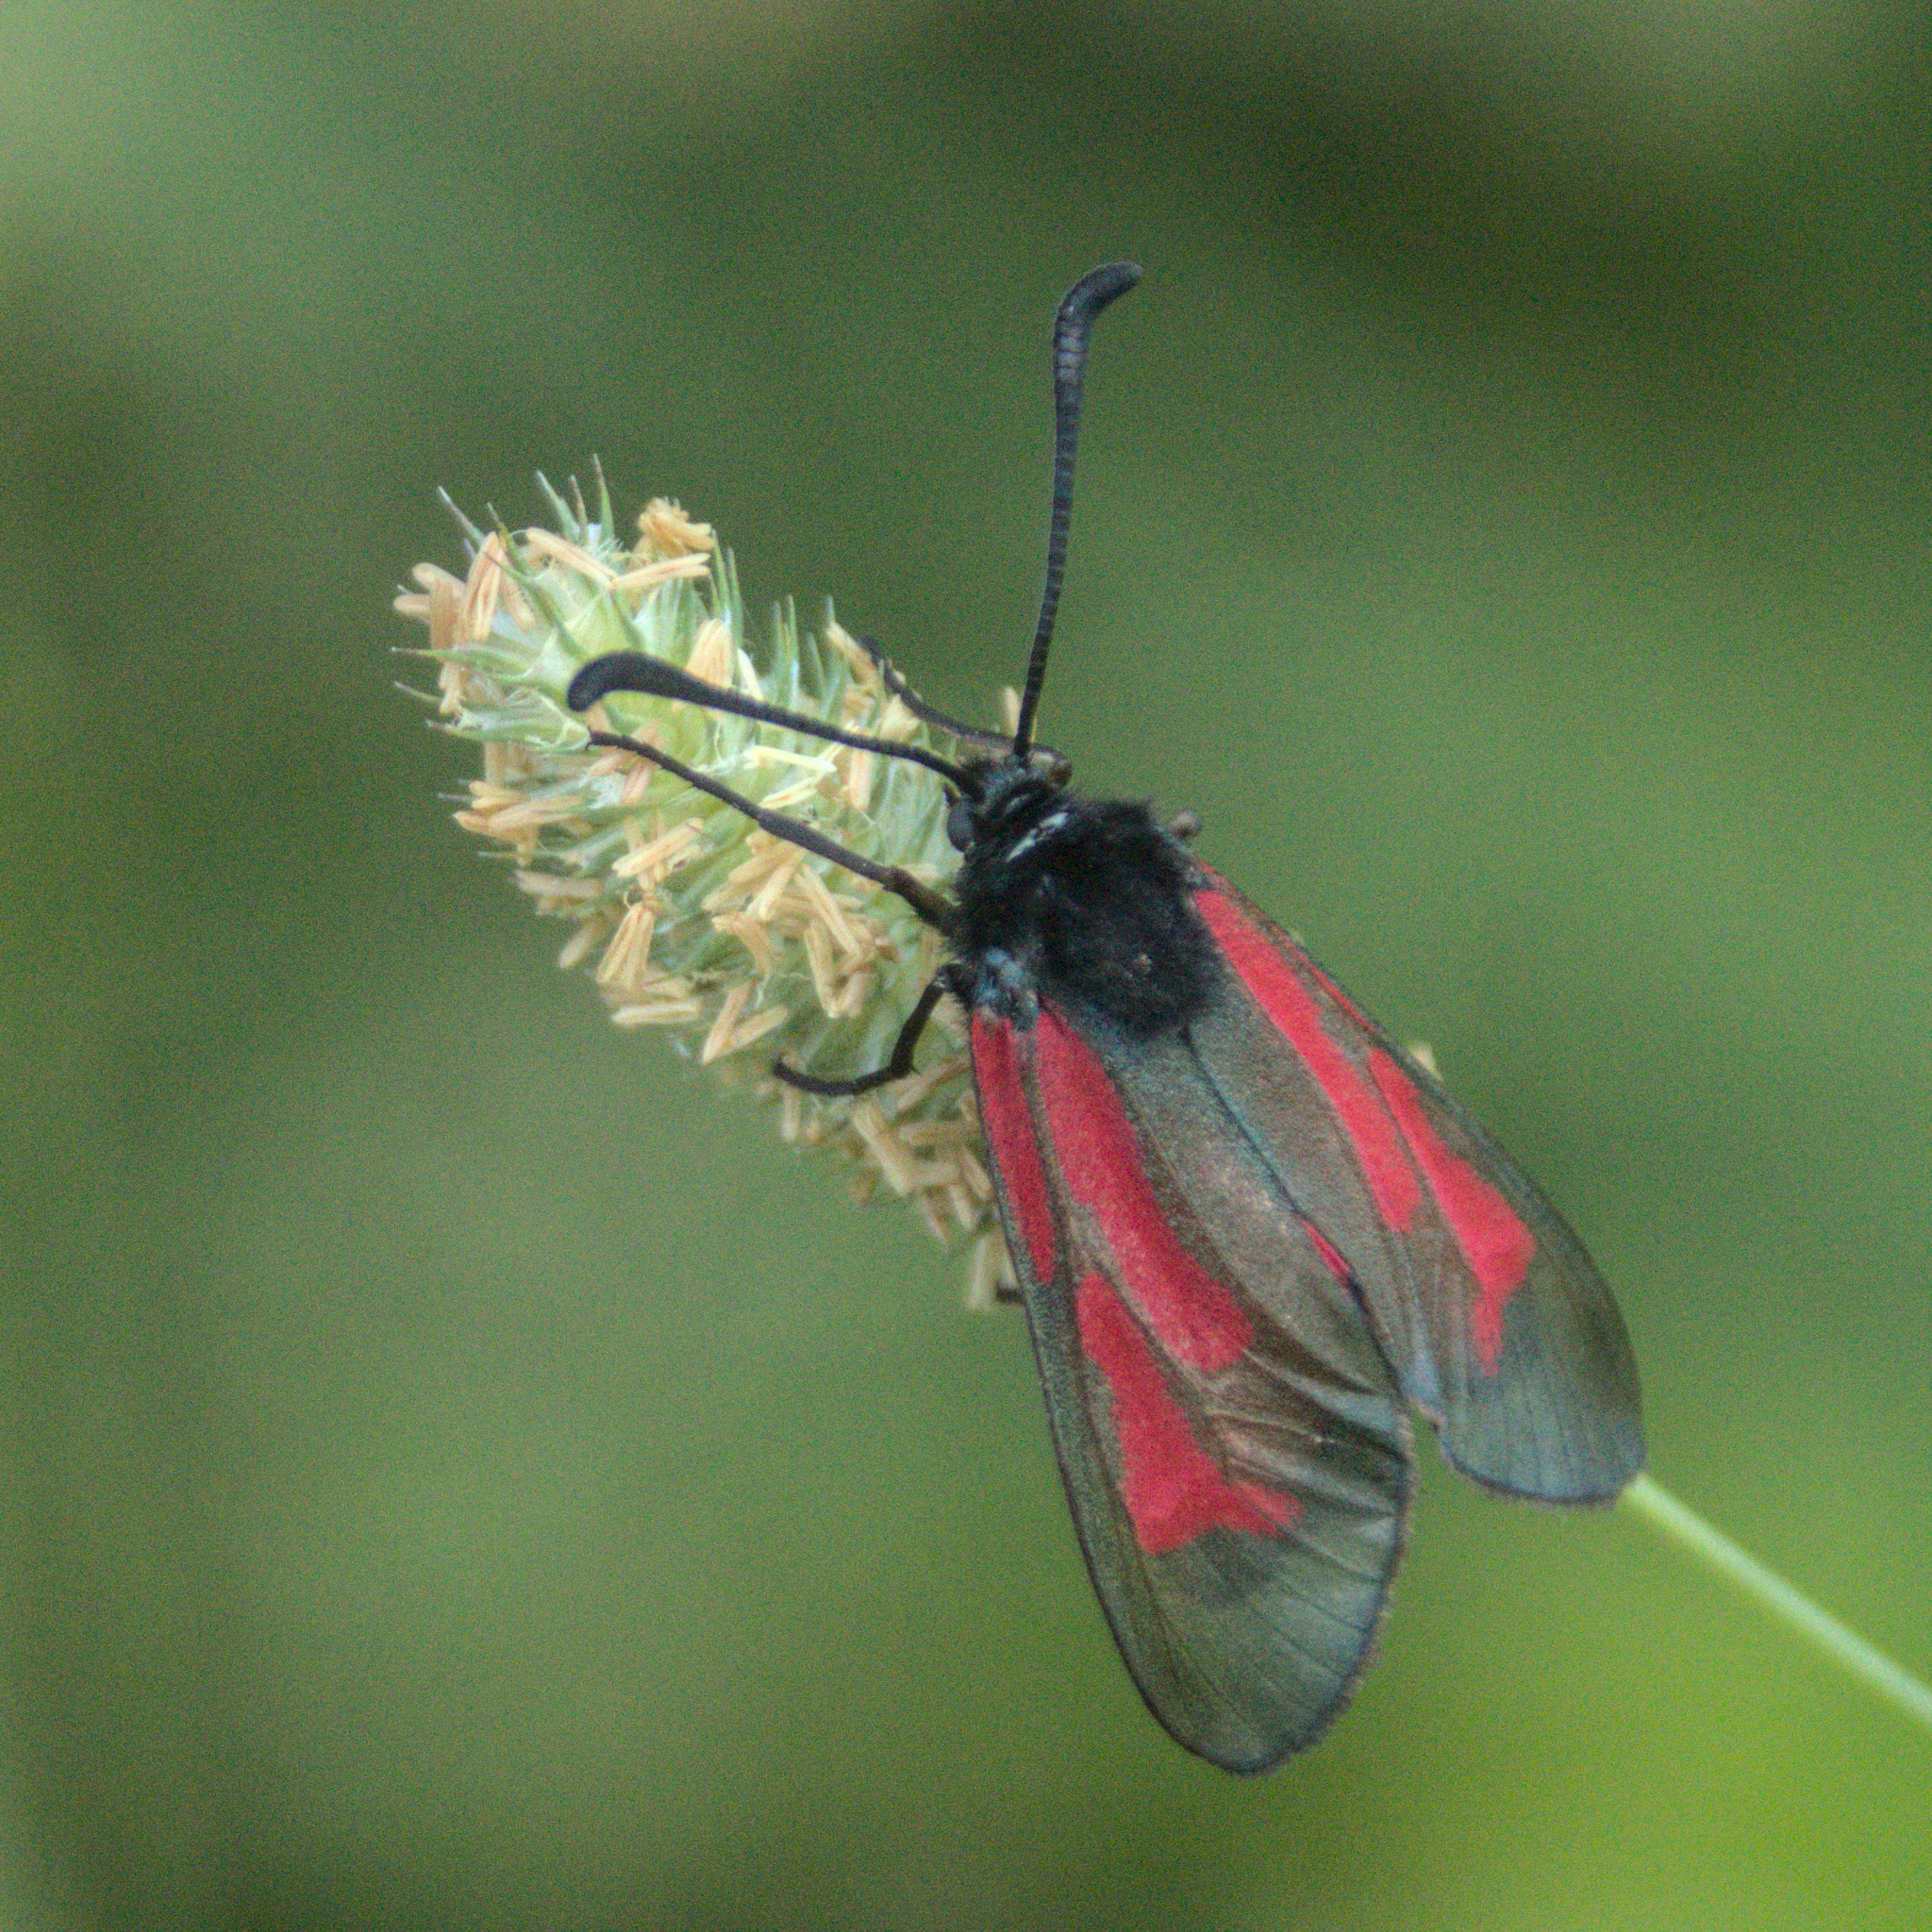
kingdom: Animalia
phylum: Arthropoda
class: Insecta
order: Lepidoptera
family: Zygaenidae
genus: Zygaena
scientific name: Zygaena
